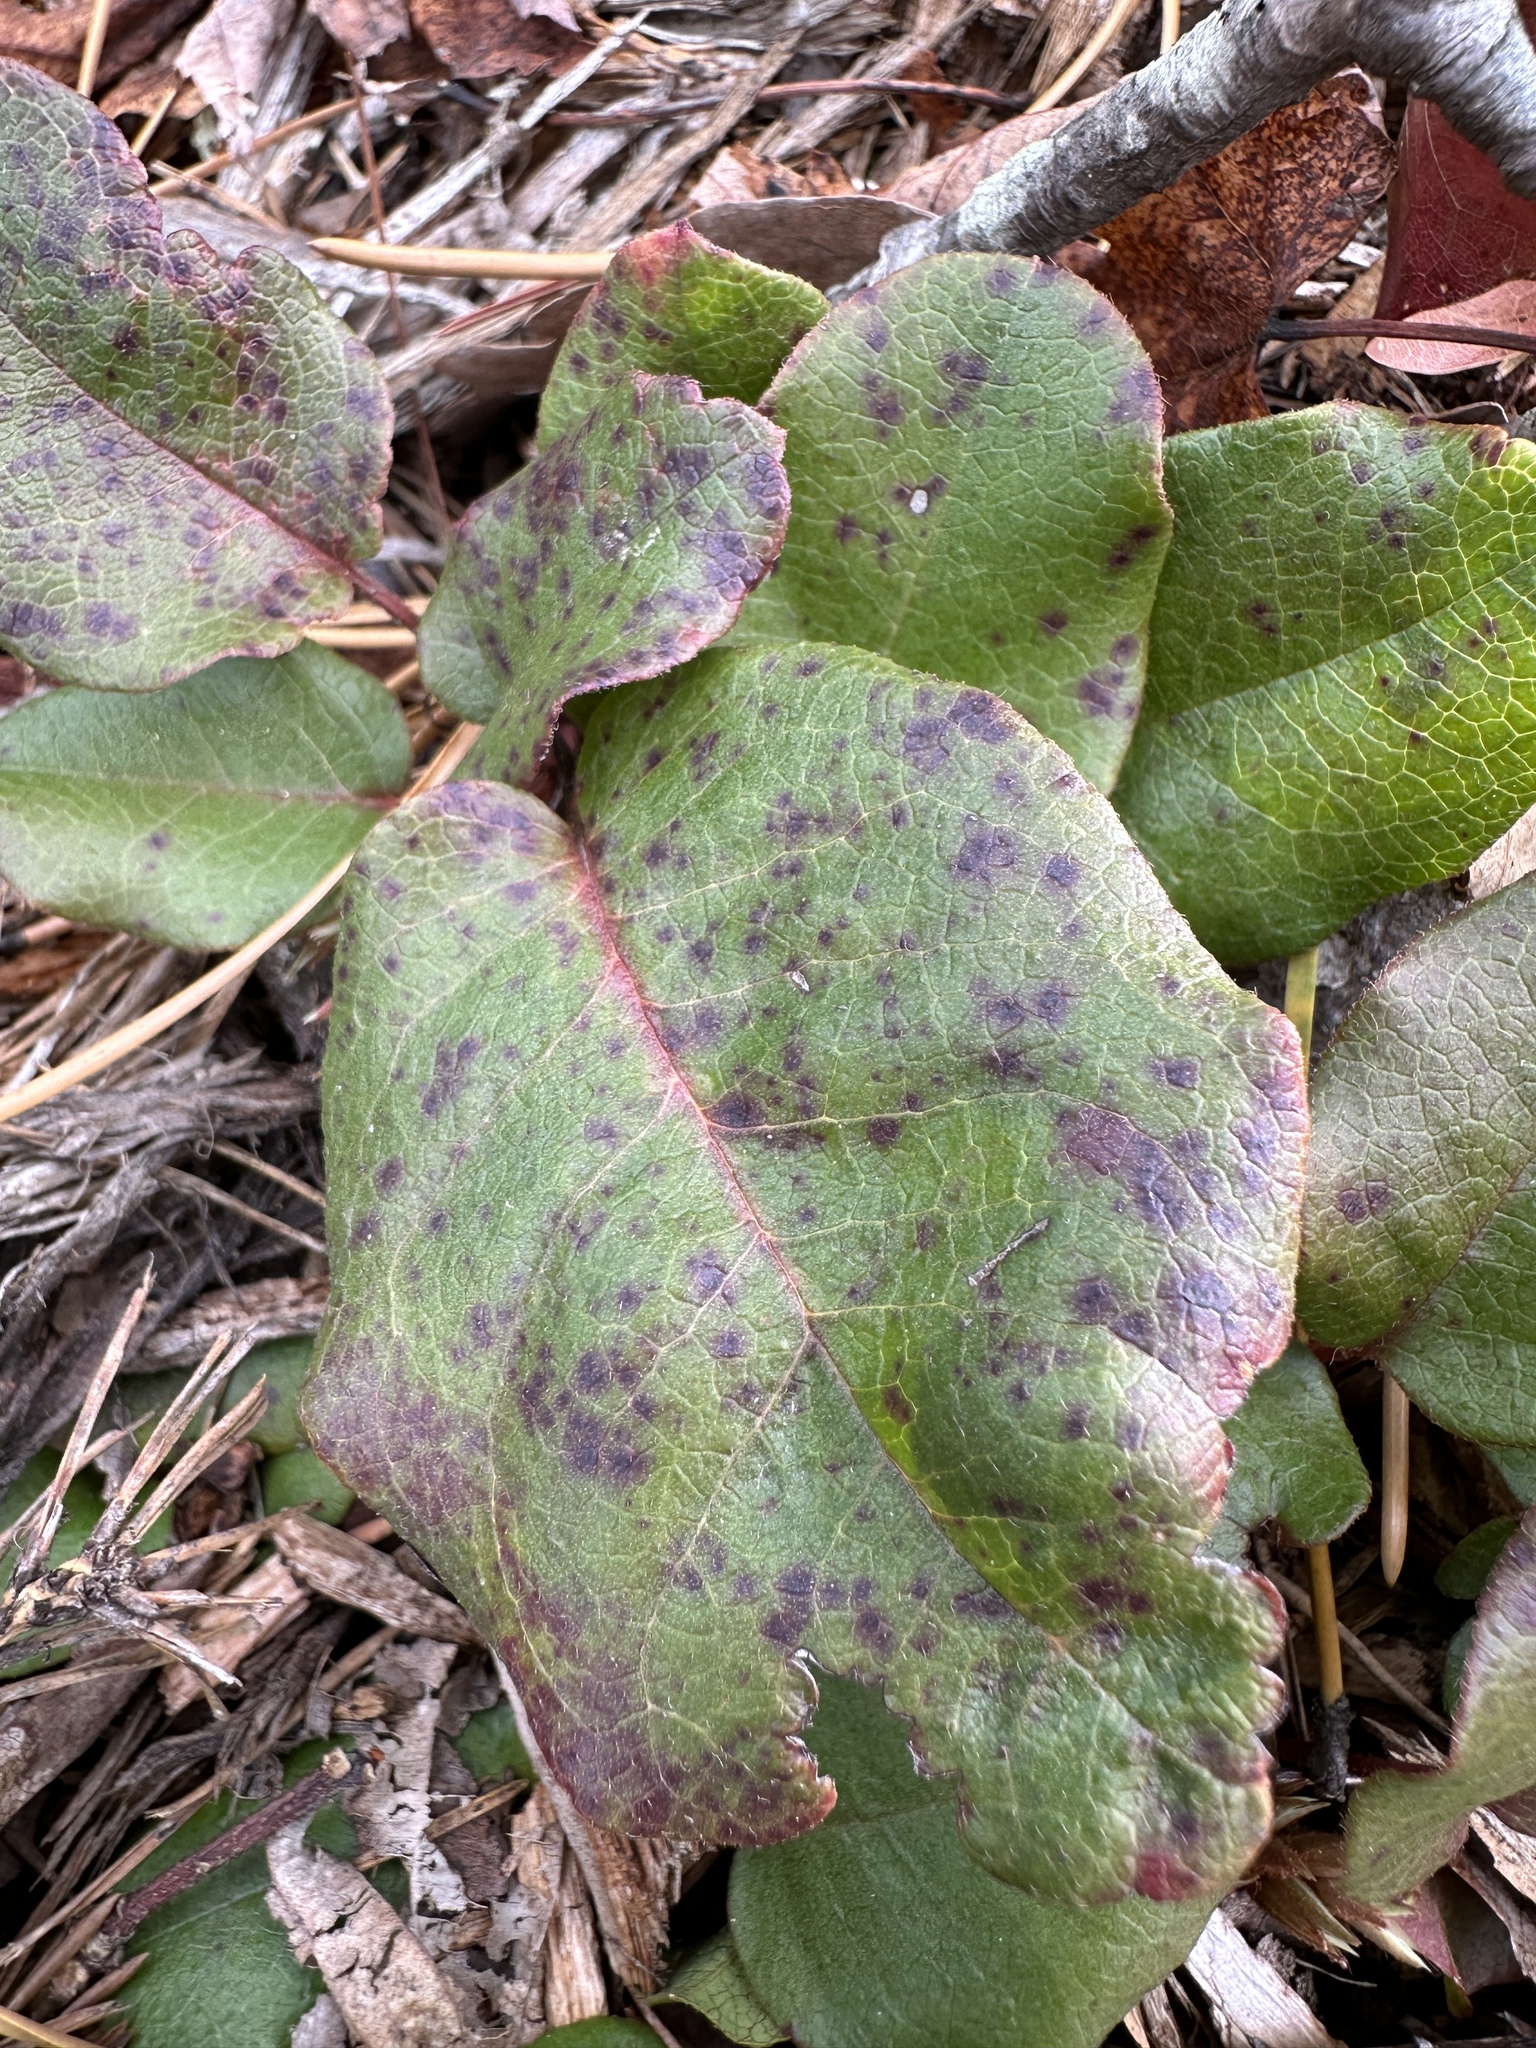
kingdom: Plantae
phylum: Tracheophyta
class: Magnoliopsida
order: Ericales
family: Ericaceae
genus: Epigaea
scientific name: Epigaea repens
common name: Gravelroot
